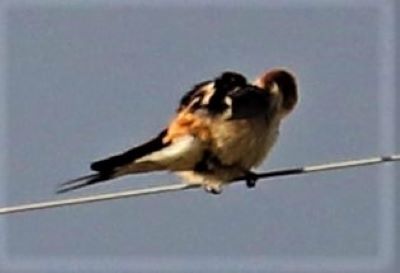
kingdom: Animalia
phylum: Chordata
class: Aves
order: Passeriformes
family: Hirundinidae
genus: Cecropis
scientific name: Cecropis cucullata
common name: Greater striped-swallow
